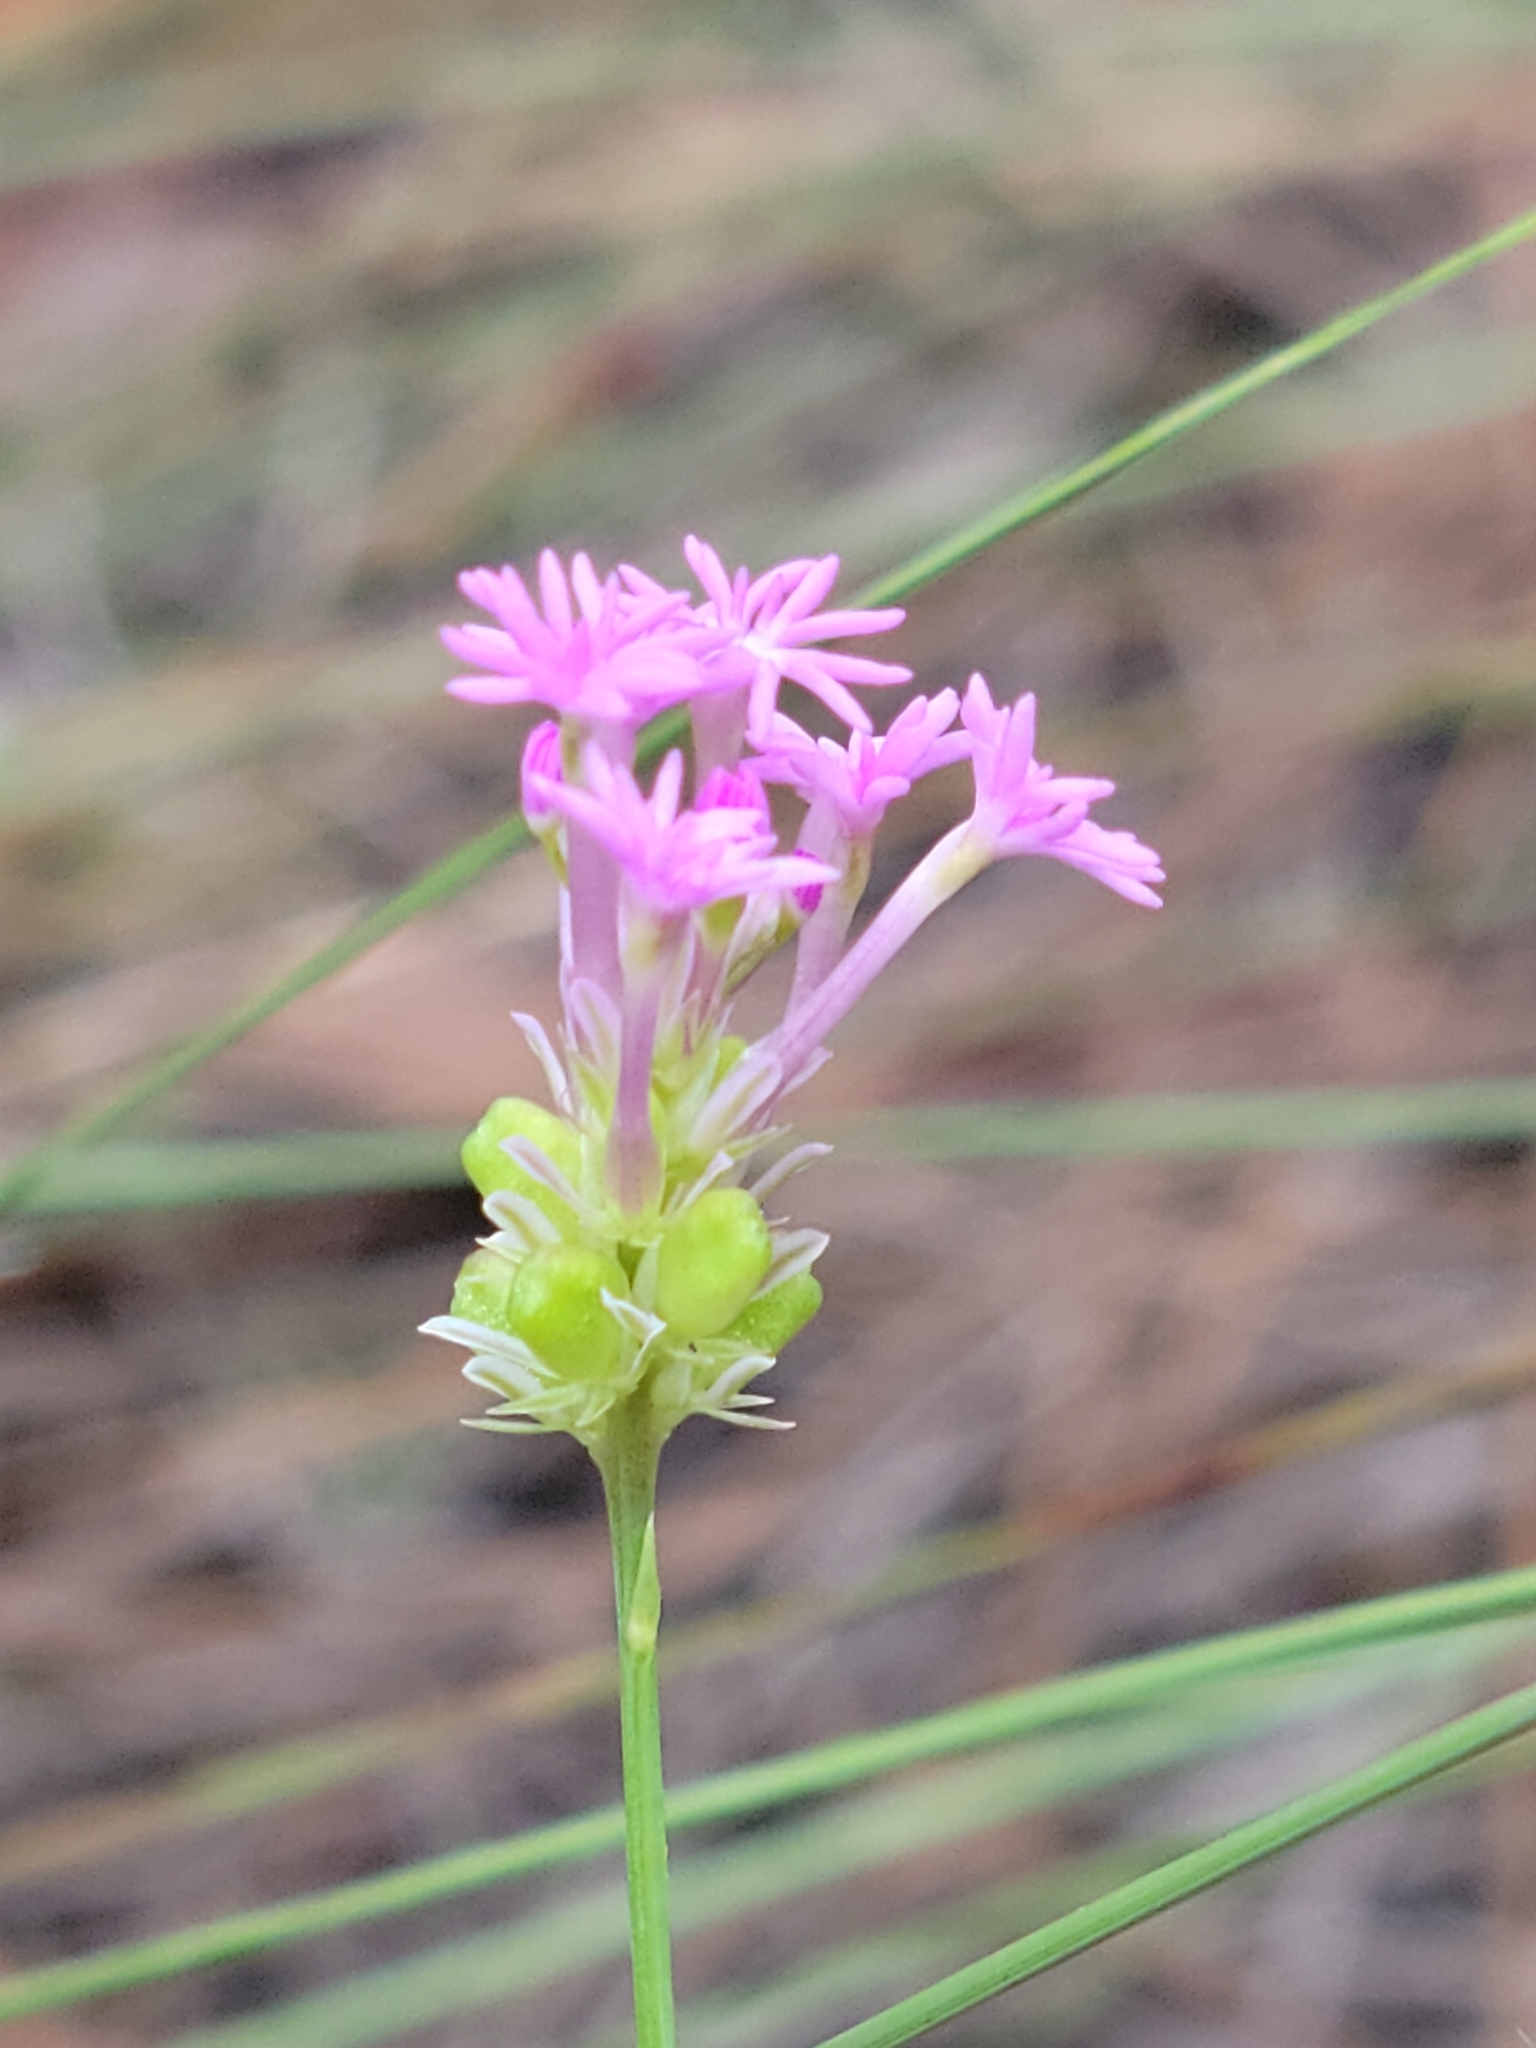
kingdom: Plantae
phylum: Tracheophyta
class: Magnoliopsida
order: Fabales
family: Polygalaceae
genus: Polygala
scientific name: Polygala incarnata
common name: Pink milkwort
